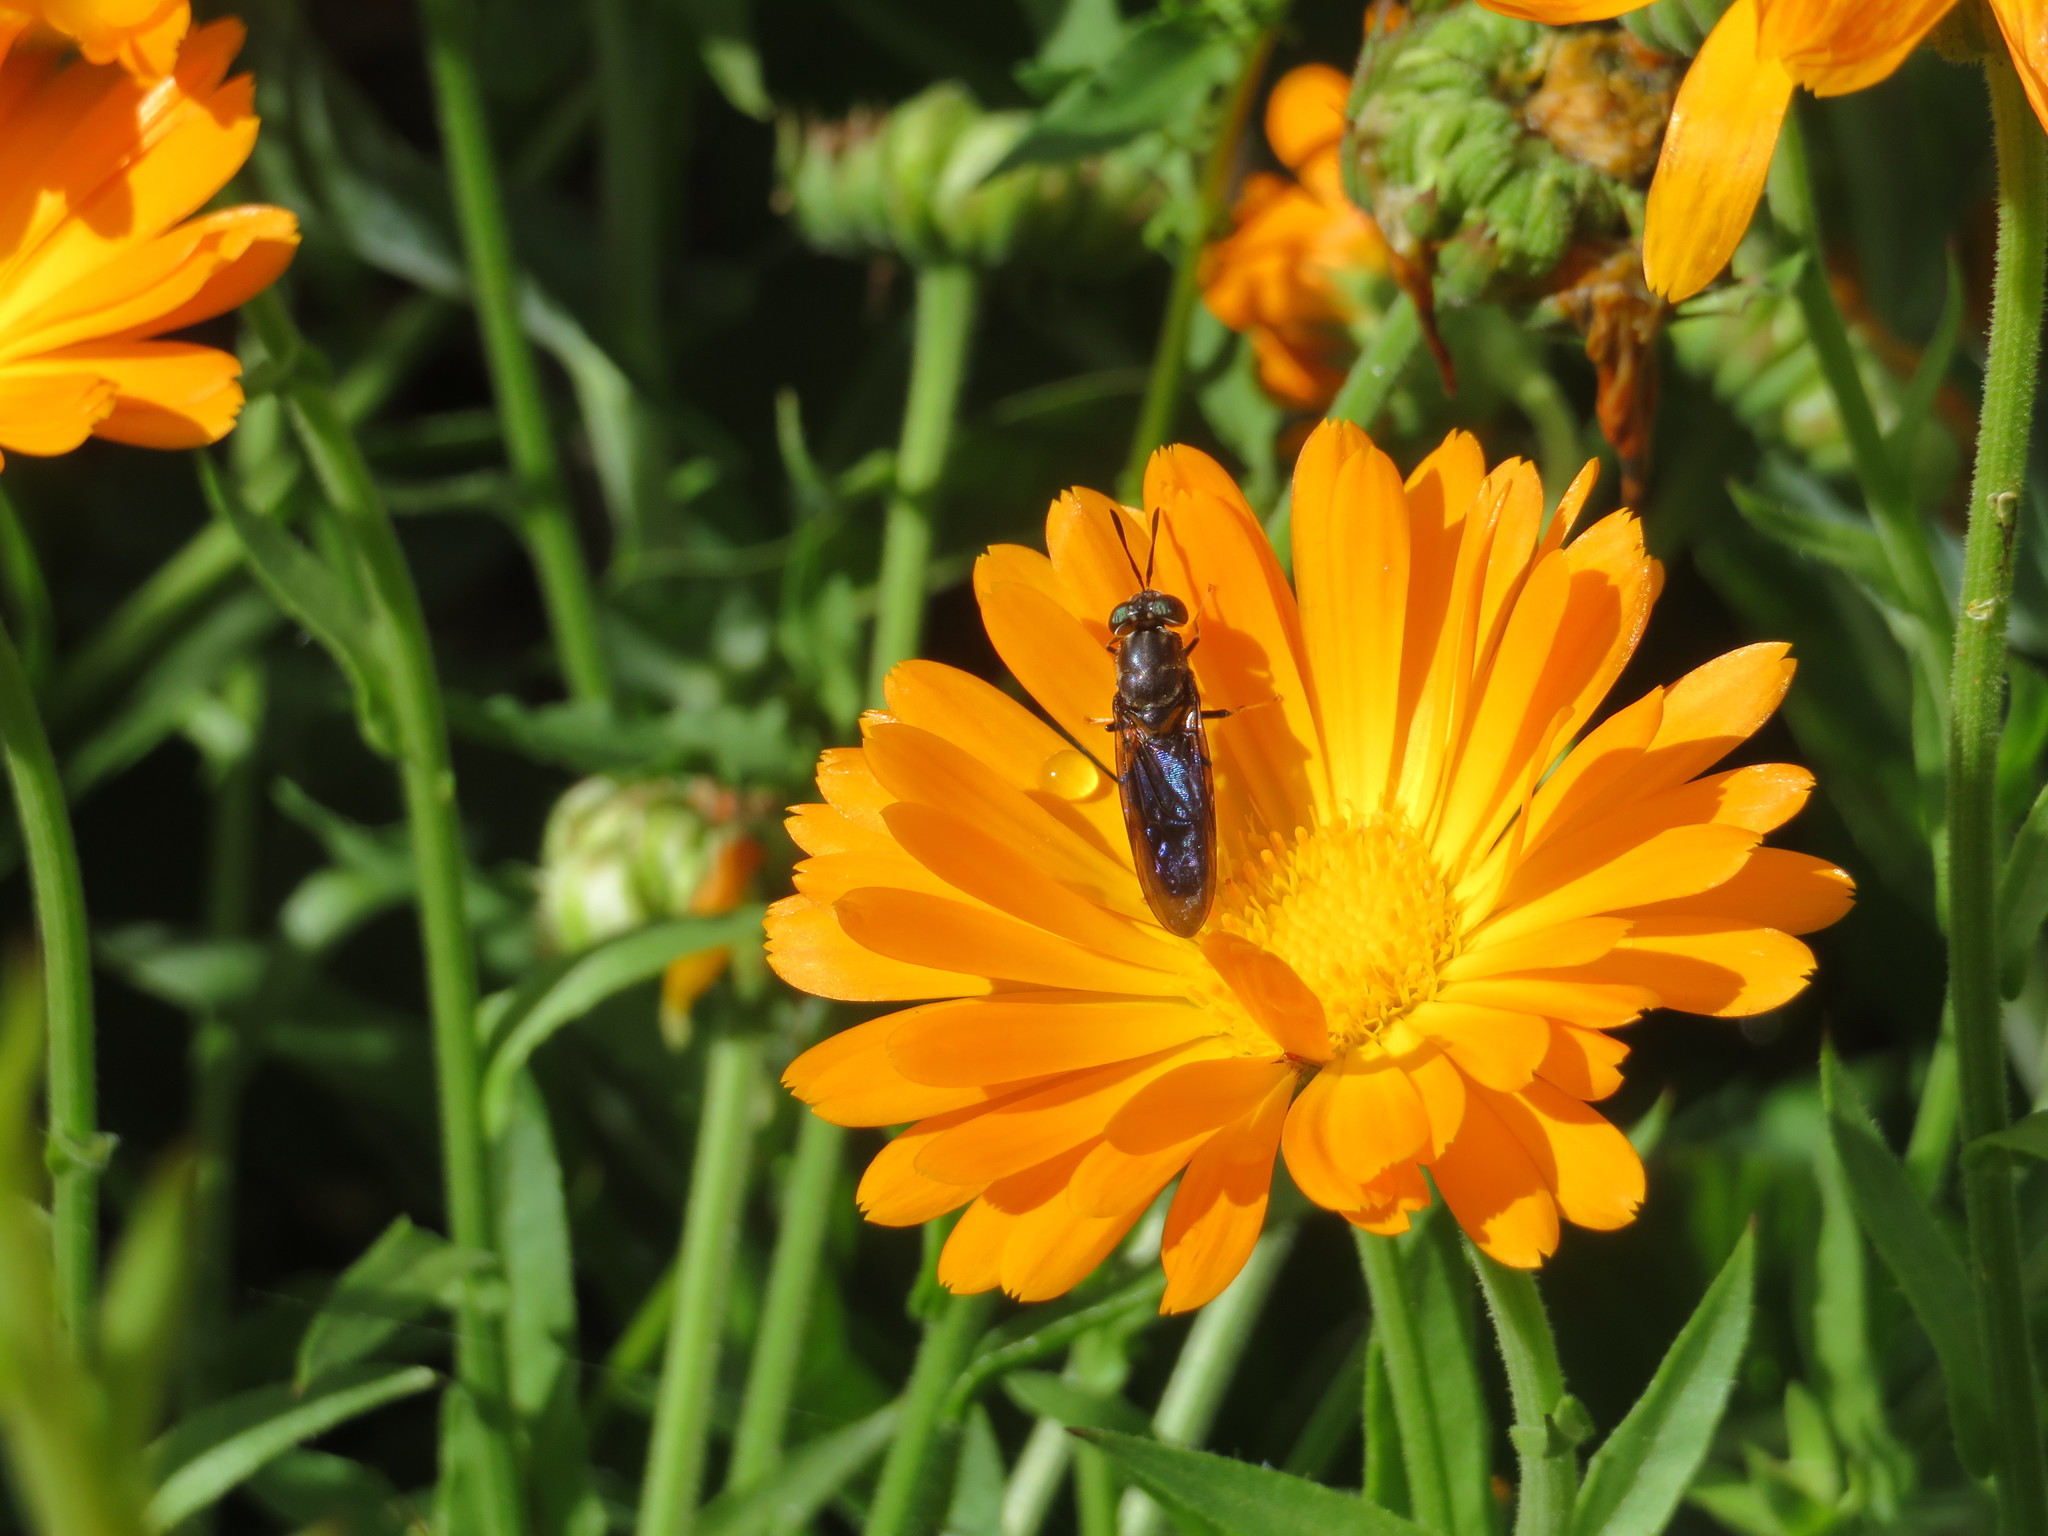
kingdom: Animalia
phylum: Arthropoda
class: Insecta
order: Diptera
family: Stratiomyidae
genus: Hermetia
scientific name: Hermetia illucens
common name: Black soldier fly
